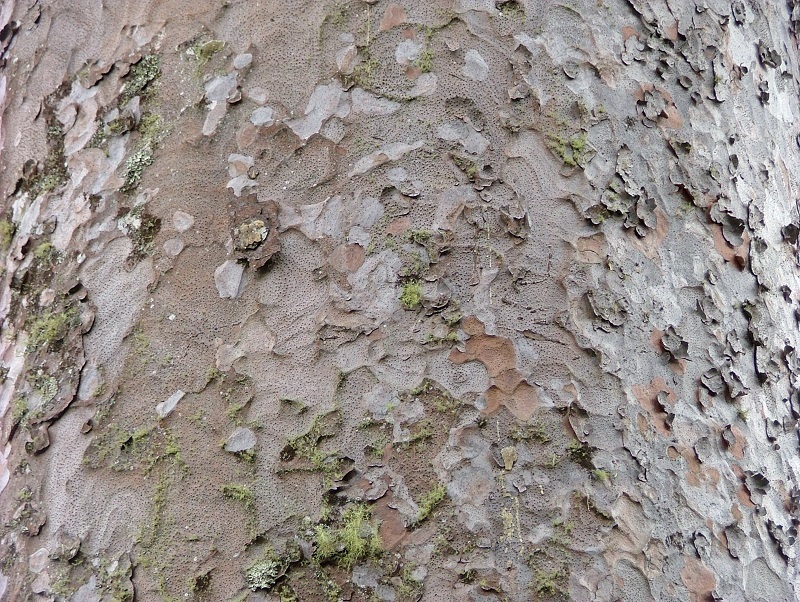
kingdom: Plantae
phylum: Tracheophyta
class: Pinopsida
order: Pinales
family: Araucariaceae
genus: Agathis
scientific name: Agathis australis
